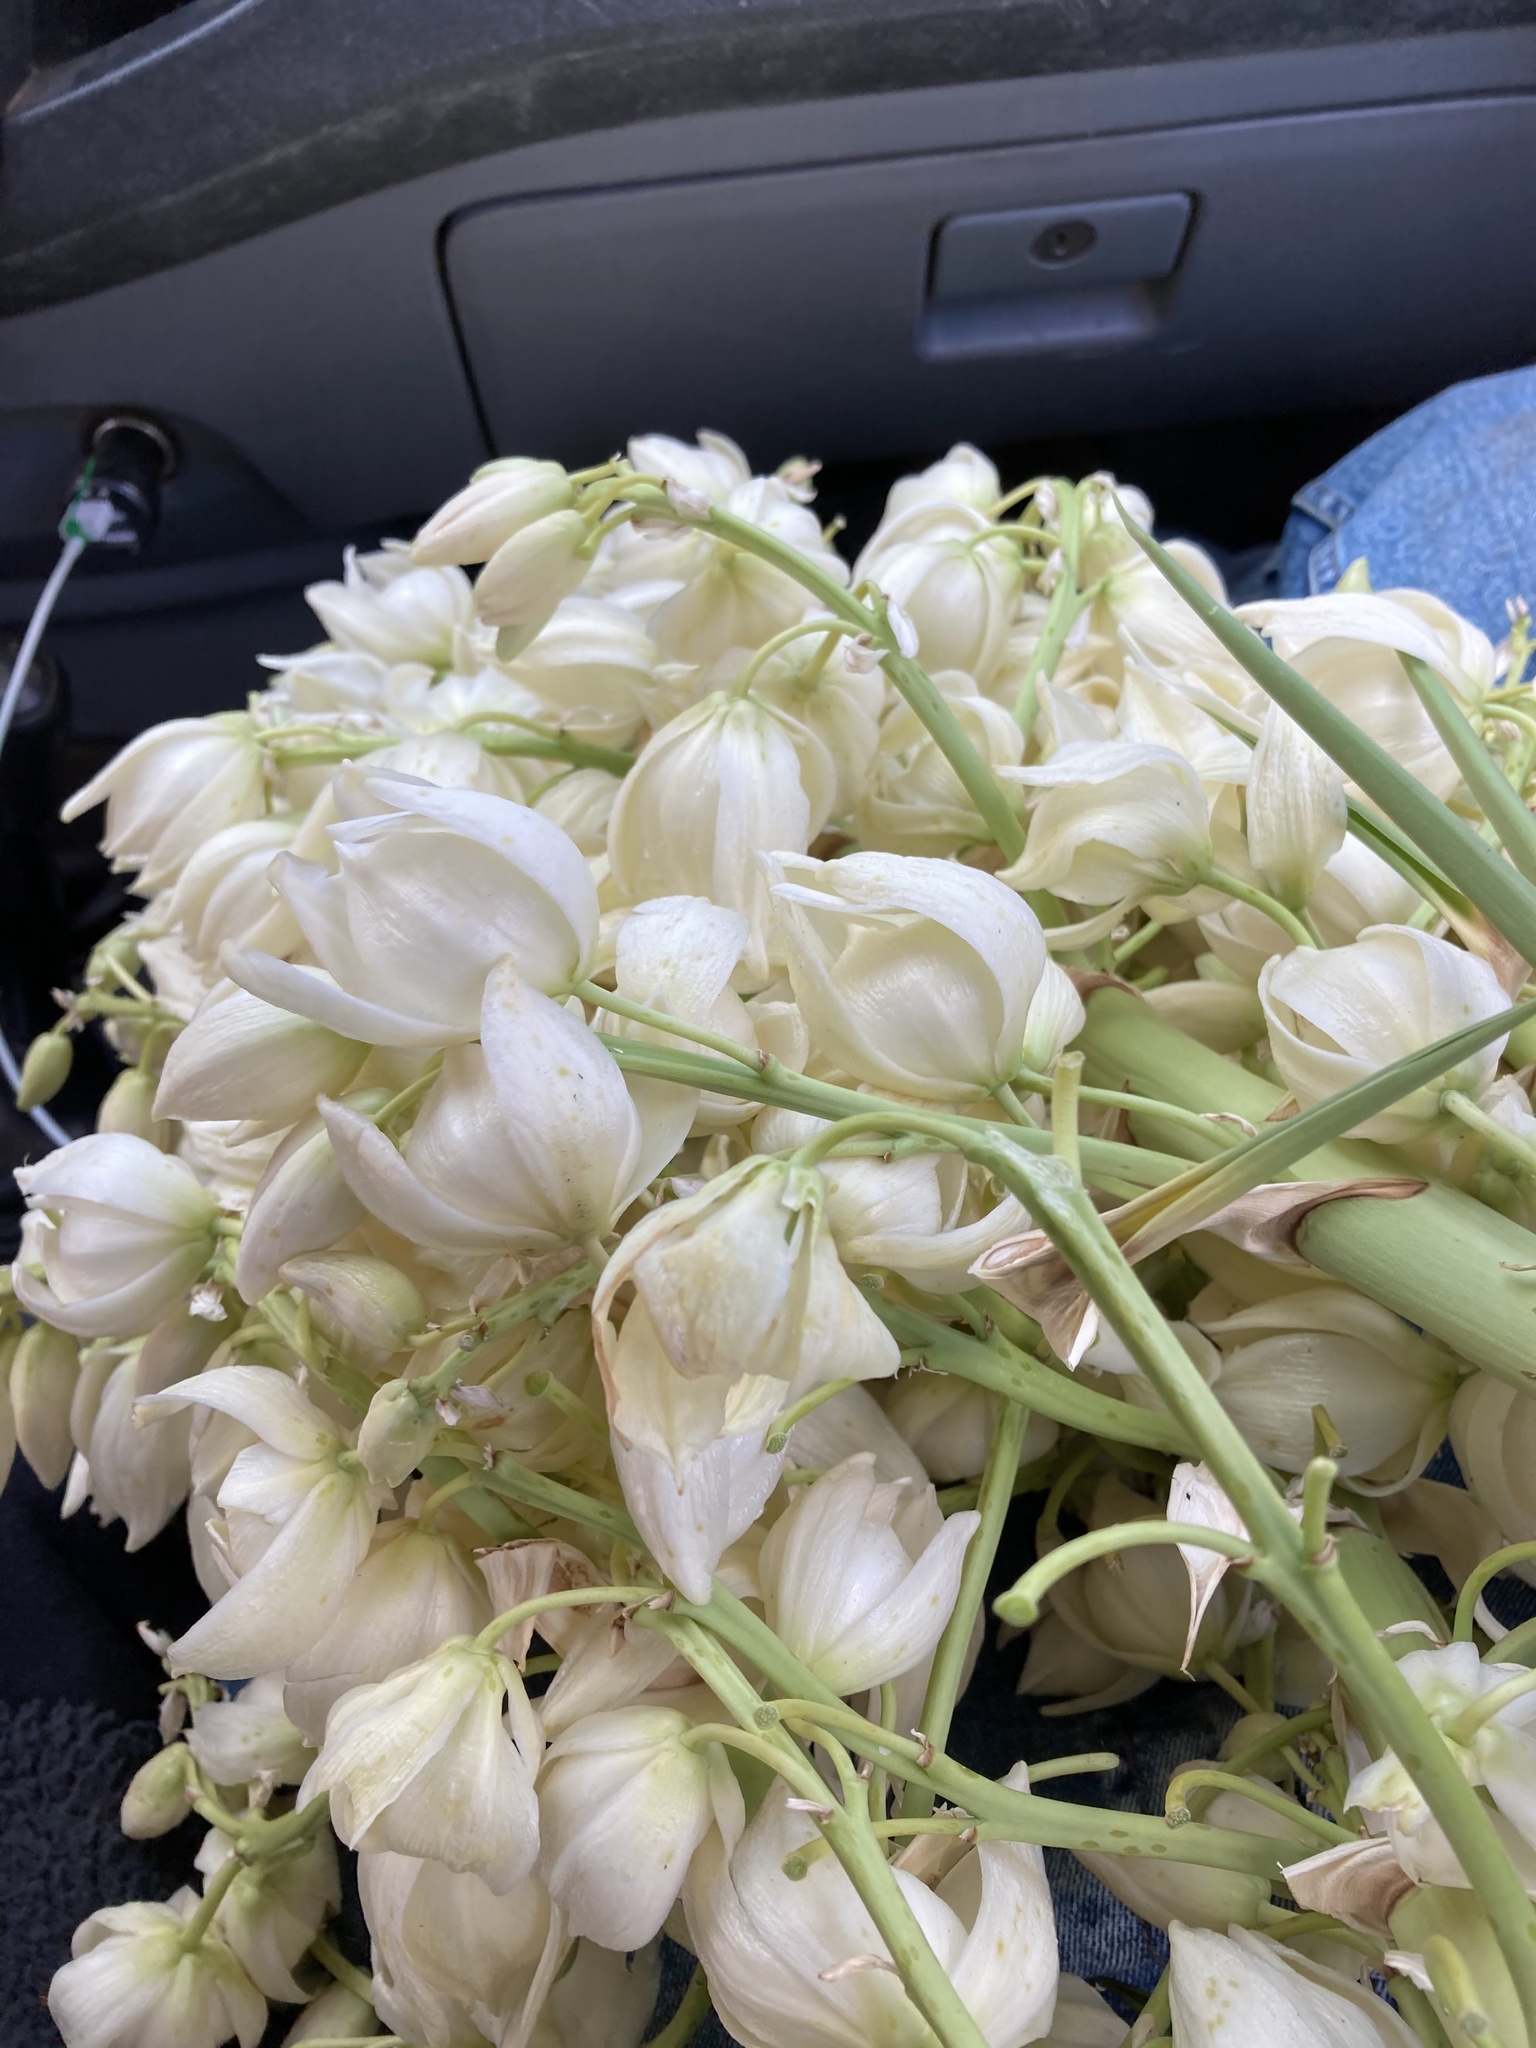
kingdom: Plantae
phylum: Tracheophyta
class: Liliopsida
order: Asparagales
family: Asparagaceae
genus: Yucca
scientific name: Yucca gigantea
